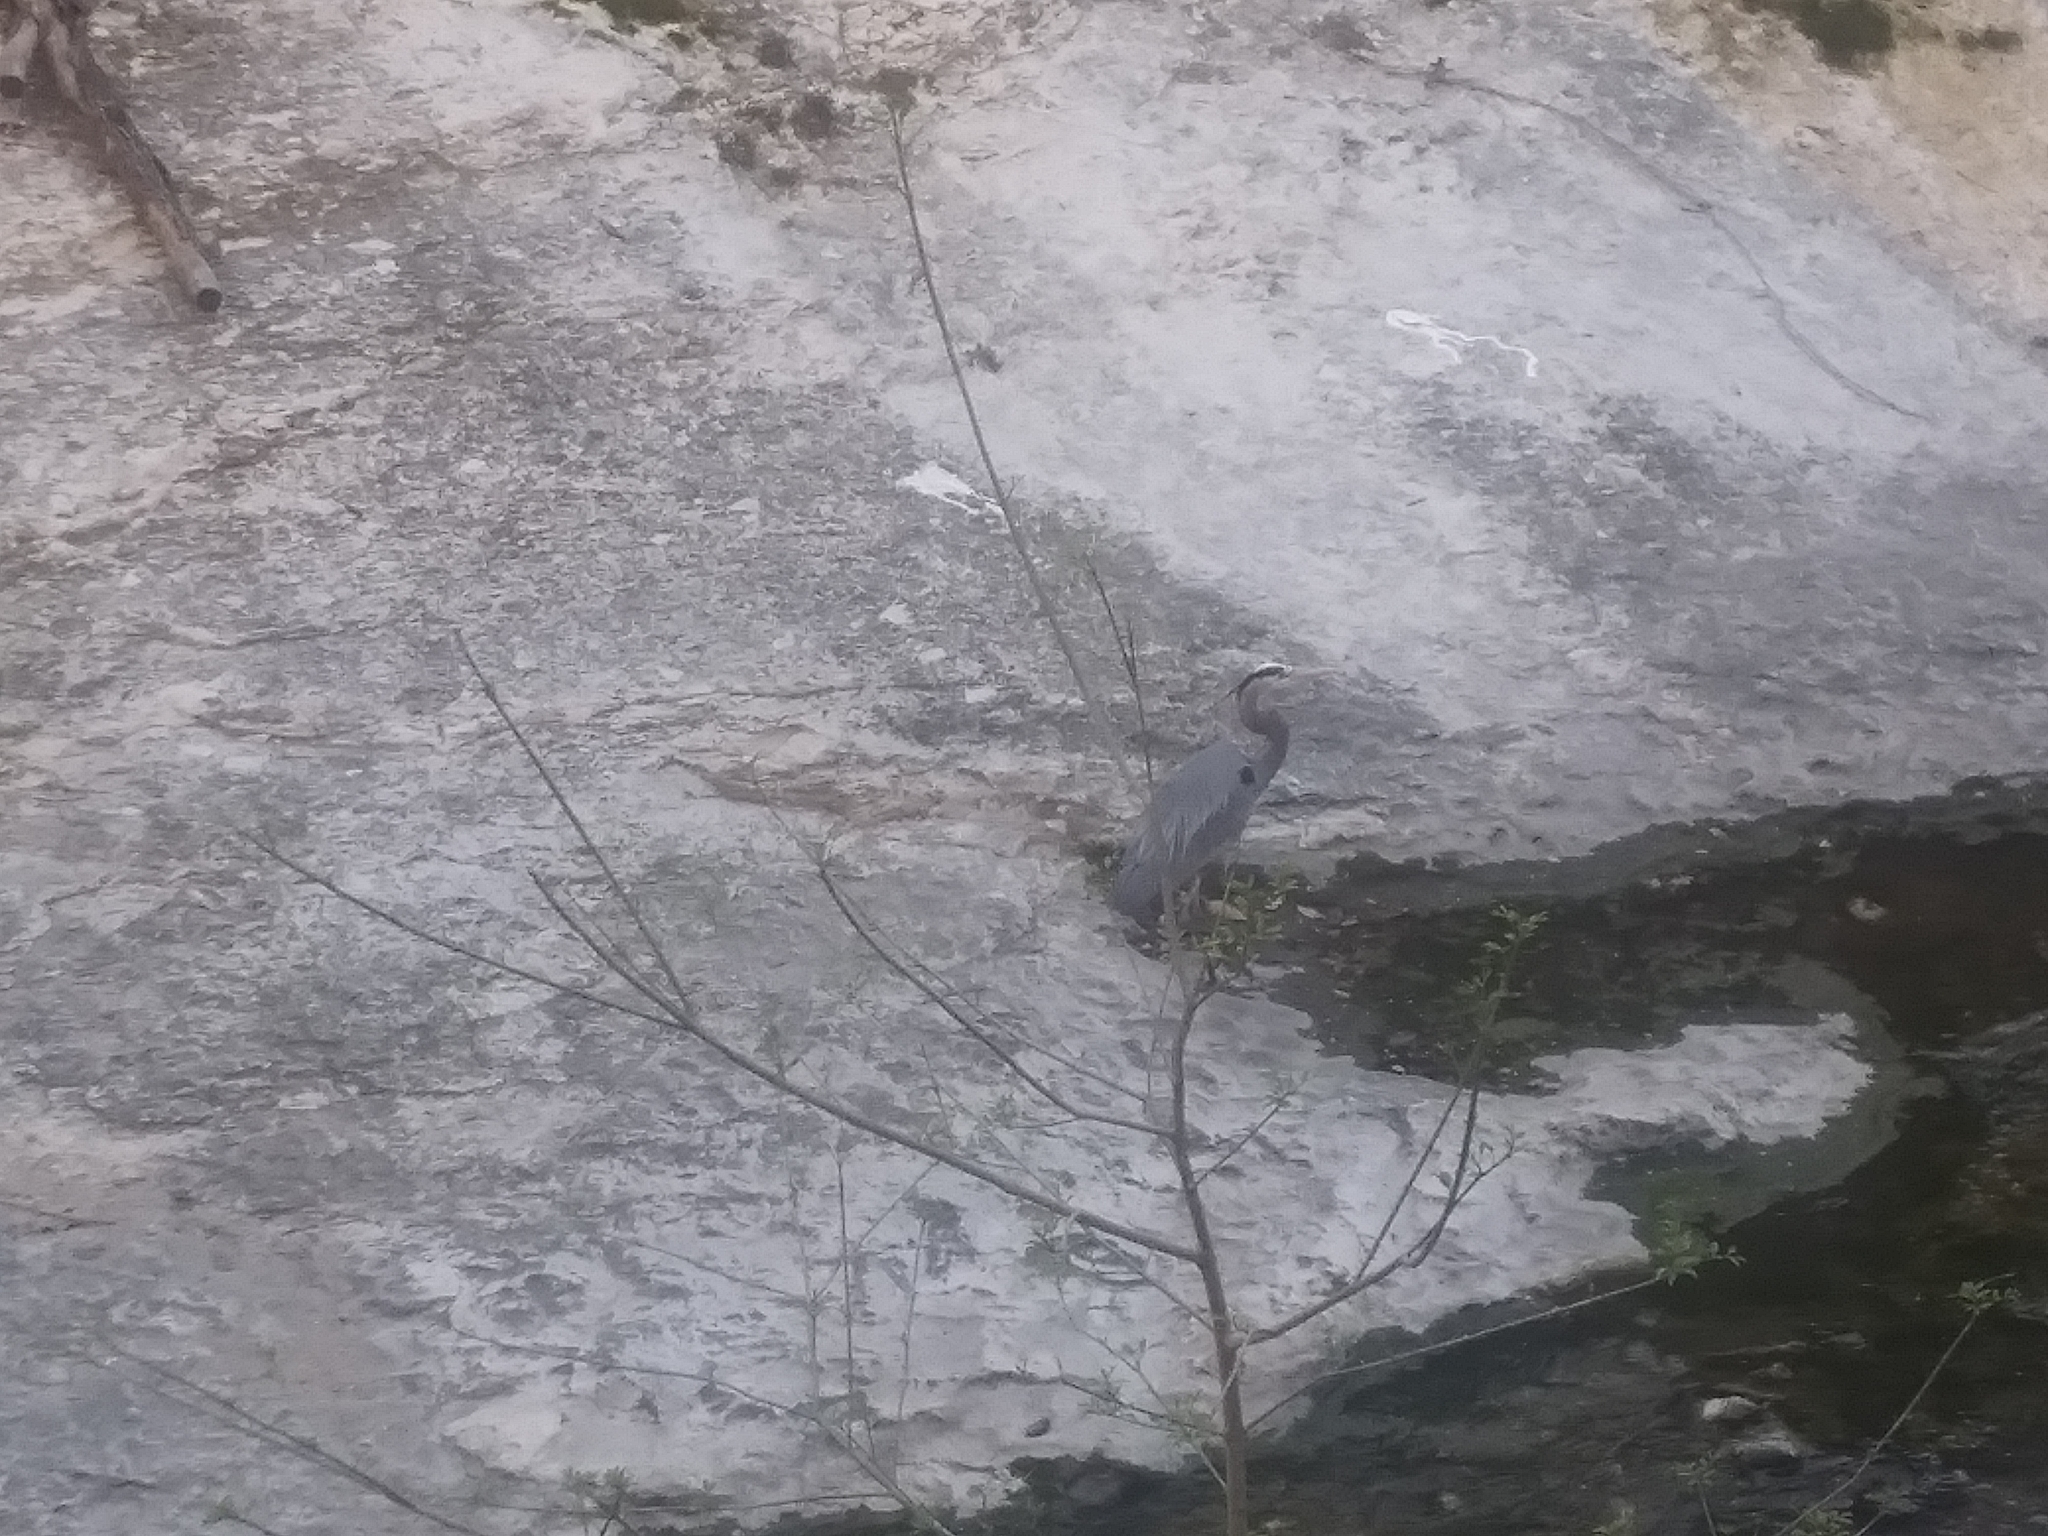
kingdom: Animalia
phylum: Chordata
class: Aves
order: Pelecaniformes
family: Ardeidae
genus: Ardea
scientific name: Ardea herodias
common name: Great blue heron
